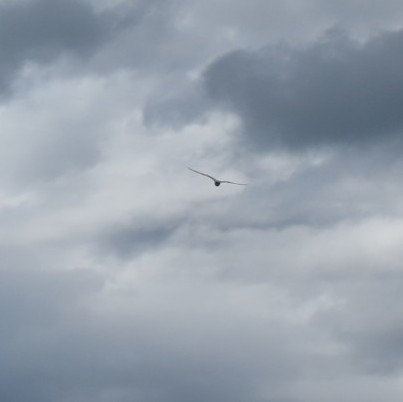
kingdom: Animalia
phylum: Chordata
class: Aves
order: Charadriiformes
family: Laridae
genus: Chlidonias
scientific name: Chlidonias albostriatus
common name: Black-fronted tern
